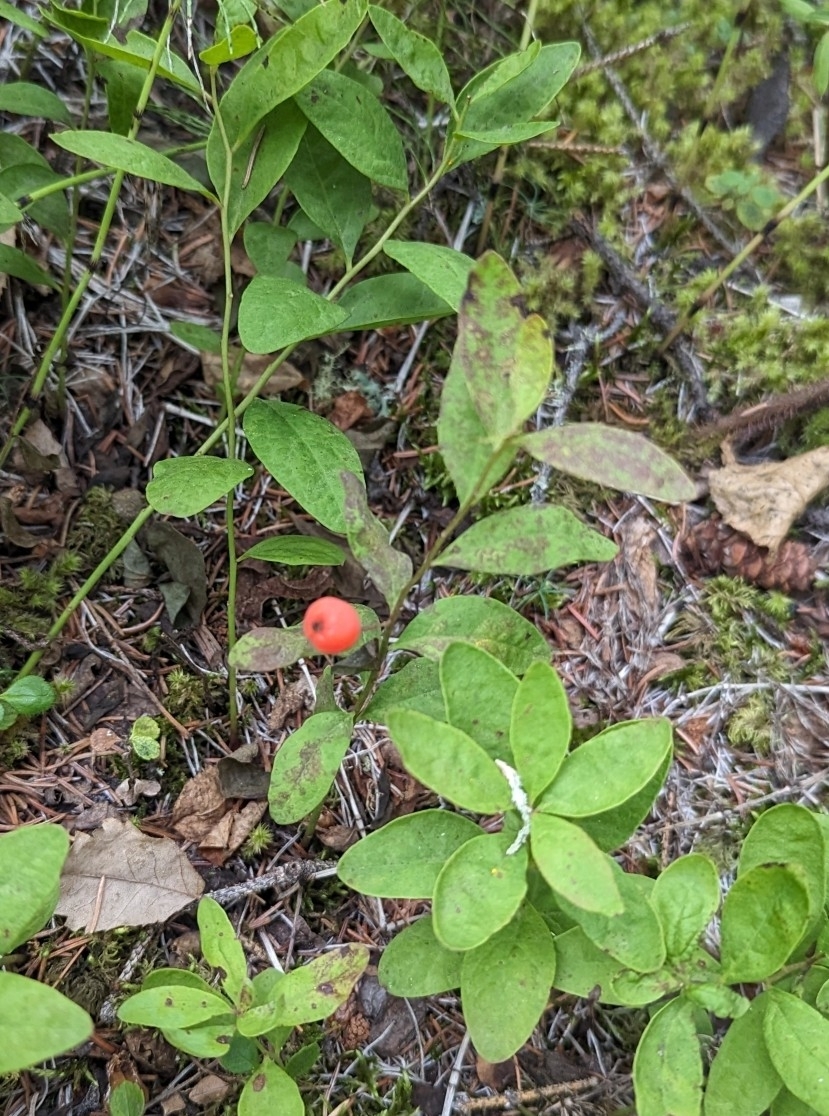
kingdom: Plantae
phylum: Tracheophyta
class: Magnoliopsida
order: Santalales
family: Comandraceae
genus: Geocaulon
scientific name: Geocaulon lividum
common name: Earthberry
